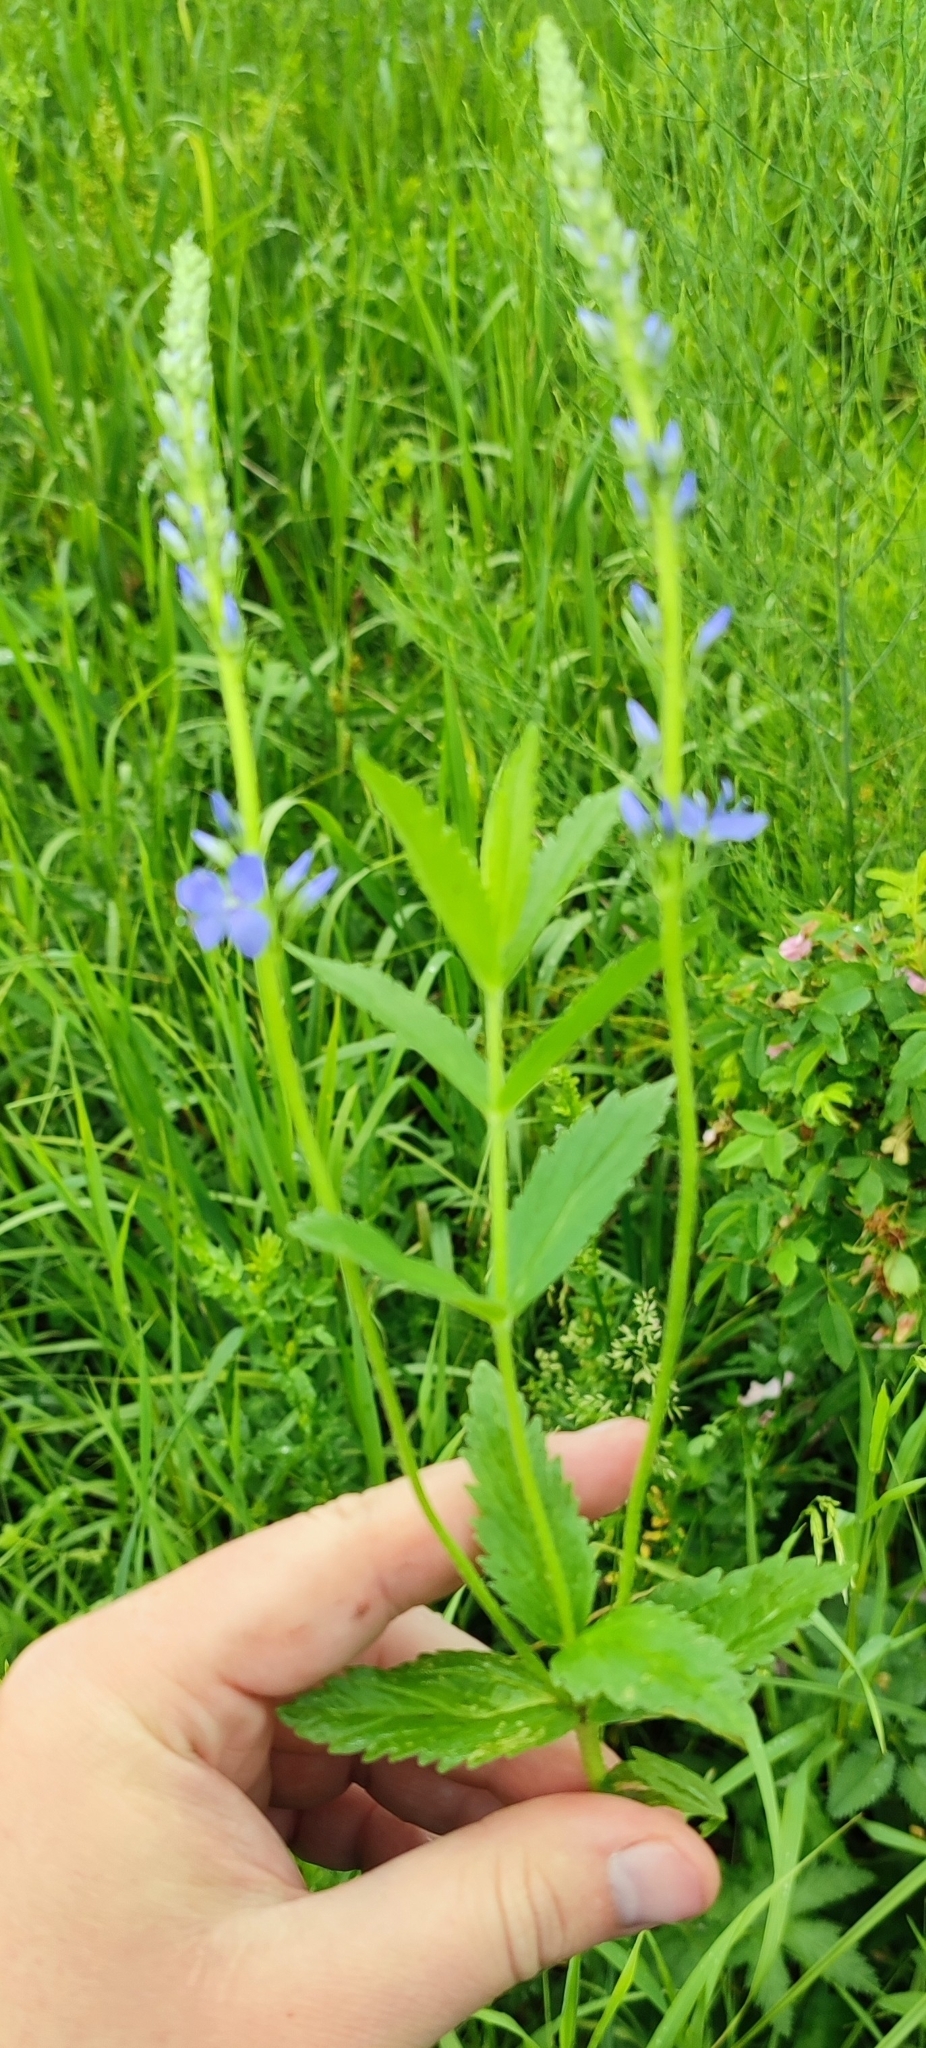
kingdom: Plantae
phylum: Tracheophyta
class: Magnoliopsida
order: Lamiales
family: Plantaginaceae
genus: Veronica
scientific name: Veronica teucrium
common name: Large speedwell
